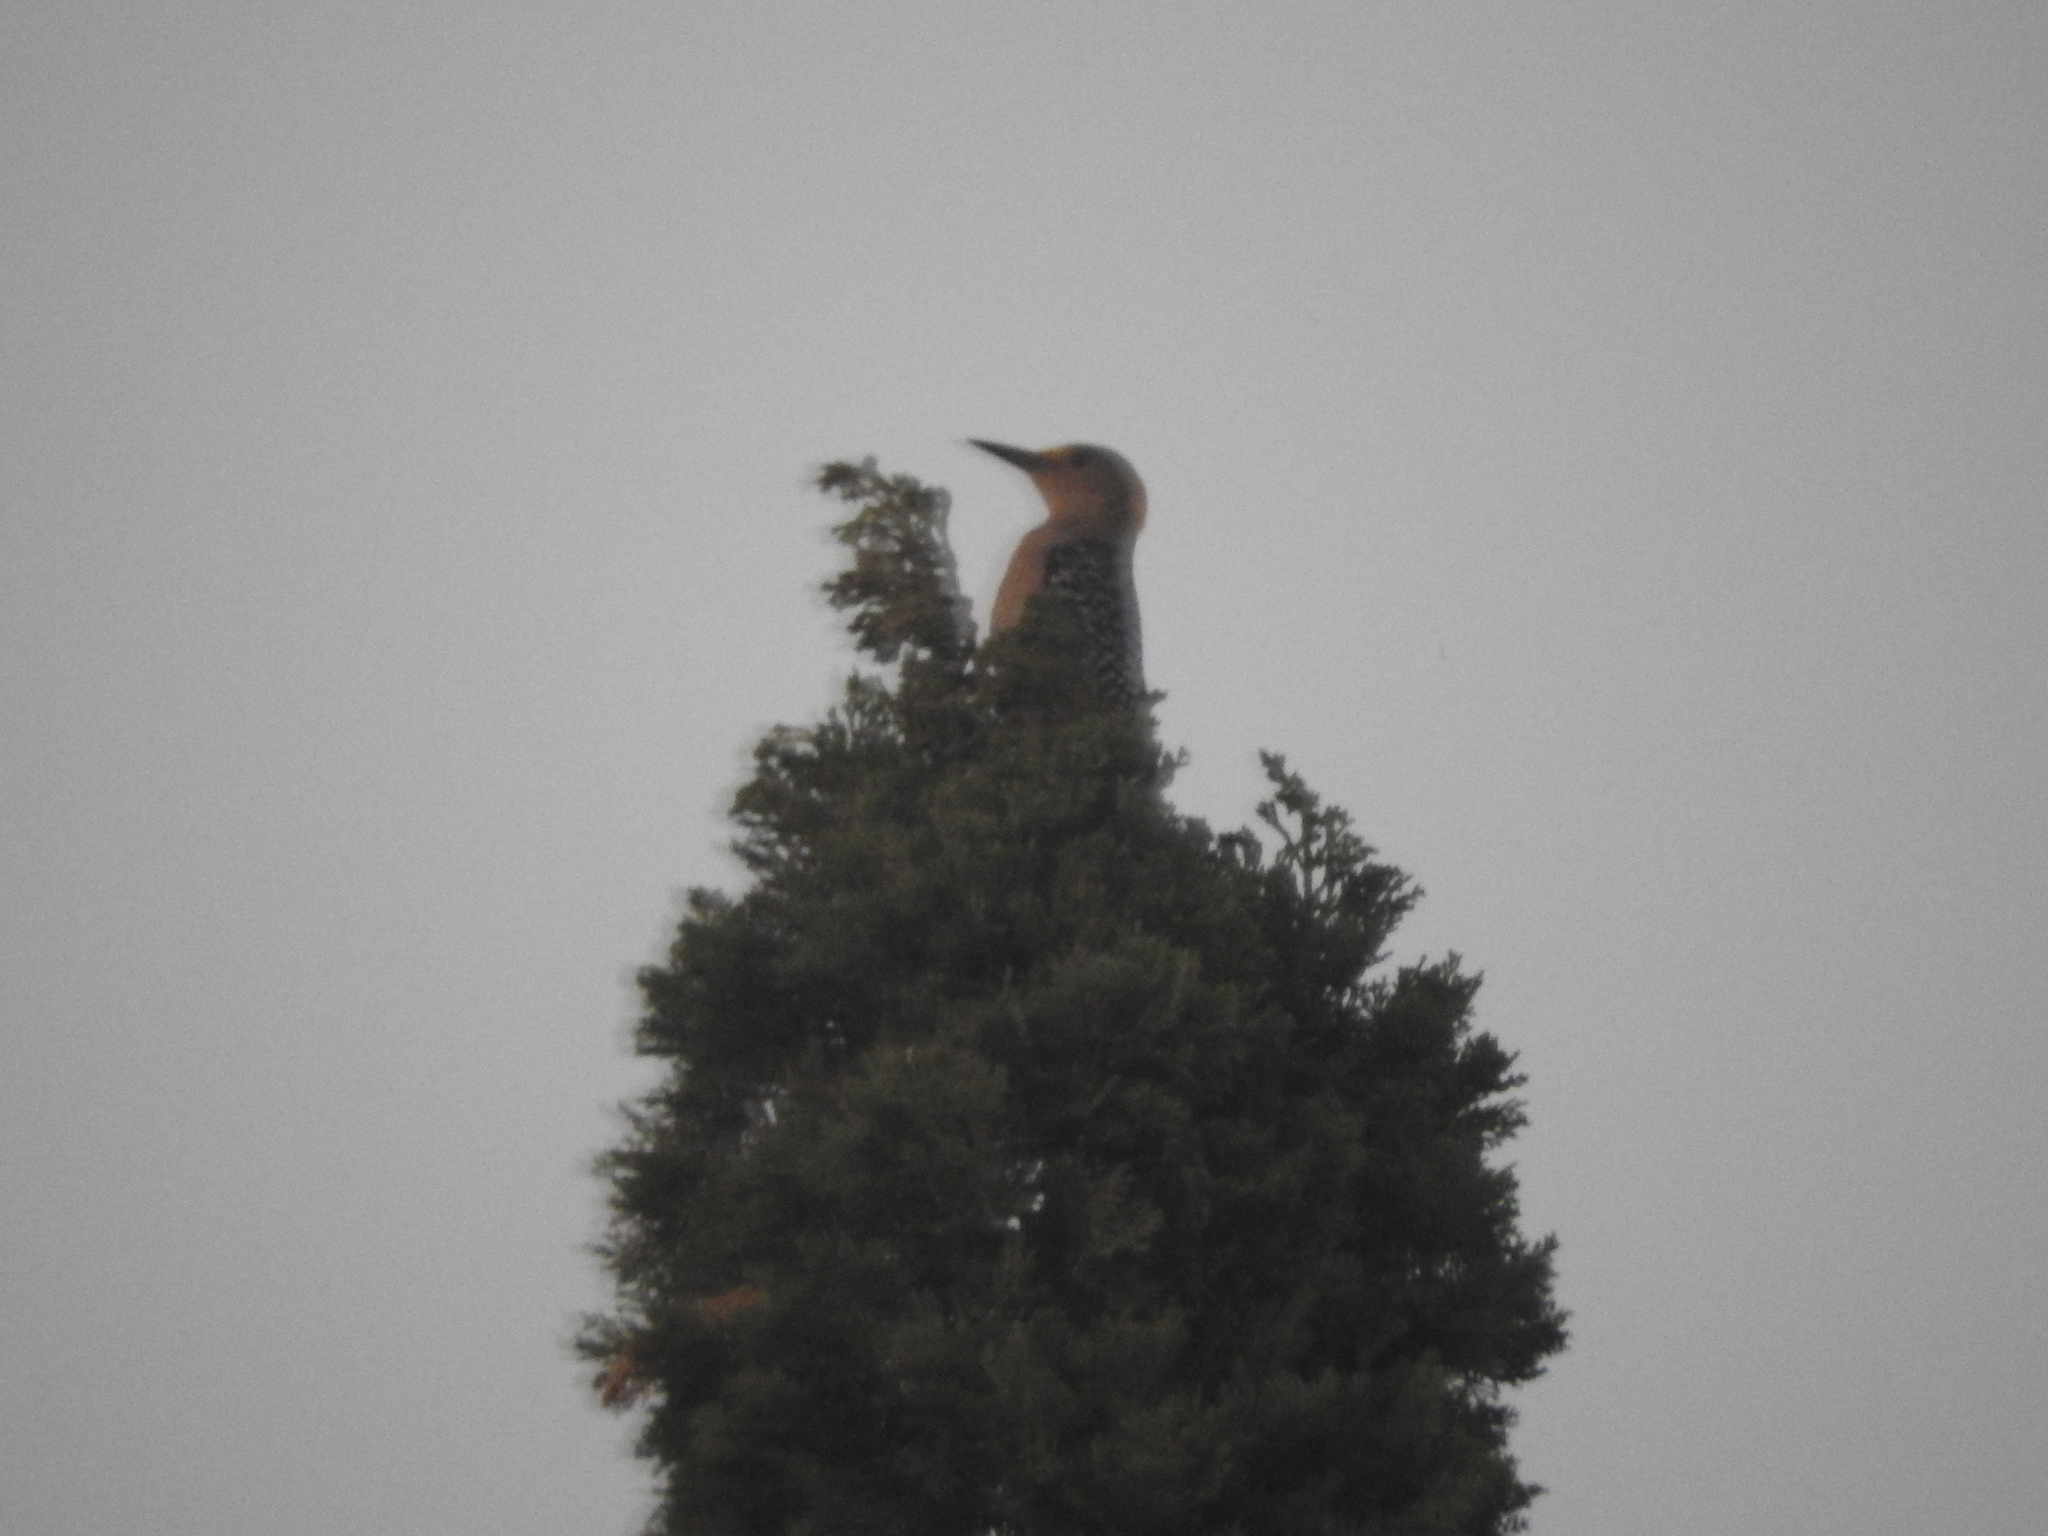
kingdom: Animalia
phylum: Chordata
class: Aves
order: Piciformes
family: Picidae
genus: Melanerpes
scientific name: Melanerpes aurifrons
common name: Golden-fronted woodpecker
